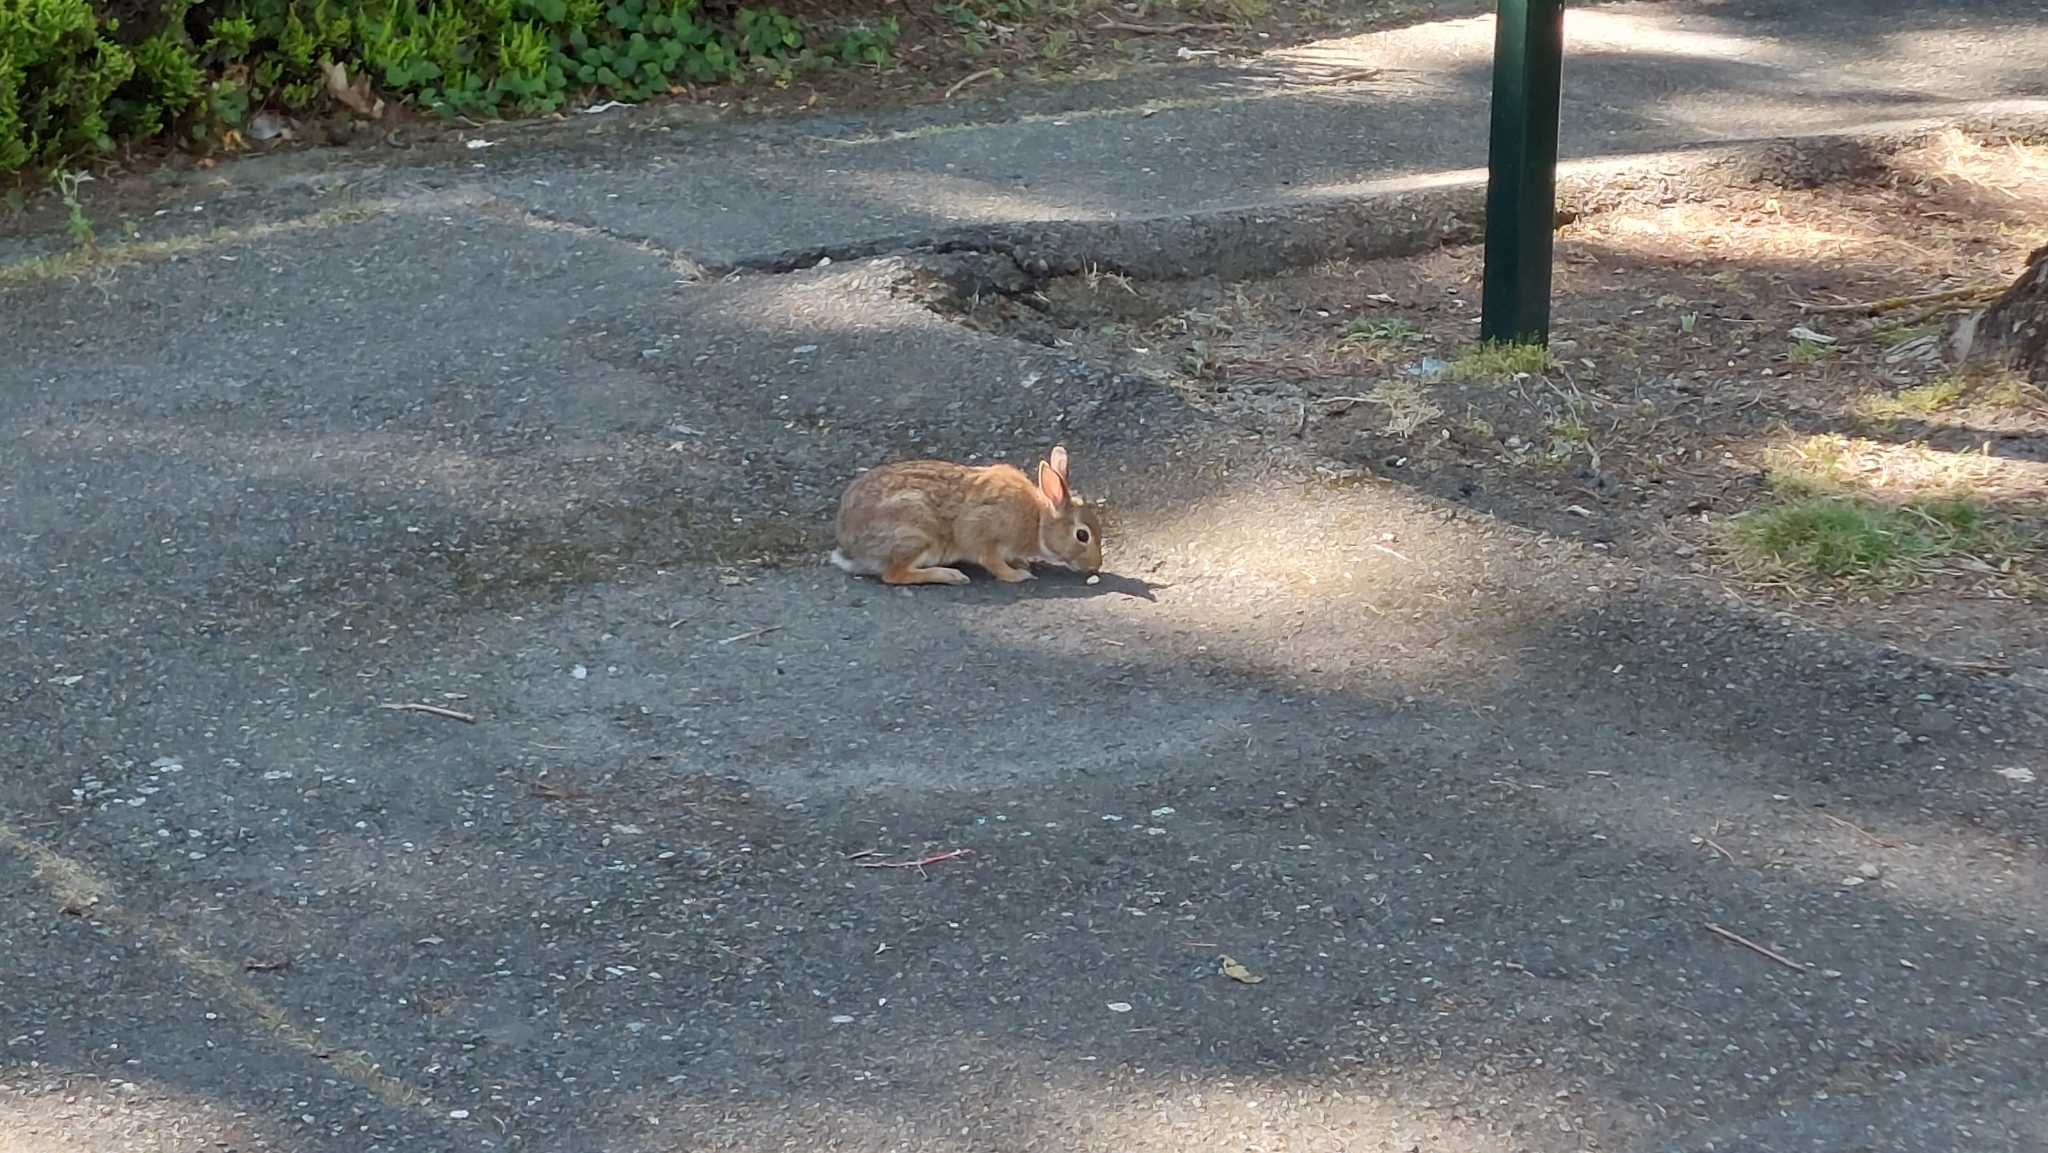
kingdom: Animalia
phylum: Chordata
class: Mammalia
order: Lagomorpha
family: Leporidae
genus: Sylvilagus
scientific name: Sylvilagus floridanus
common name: Eastern cottontail
